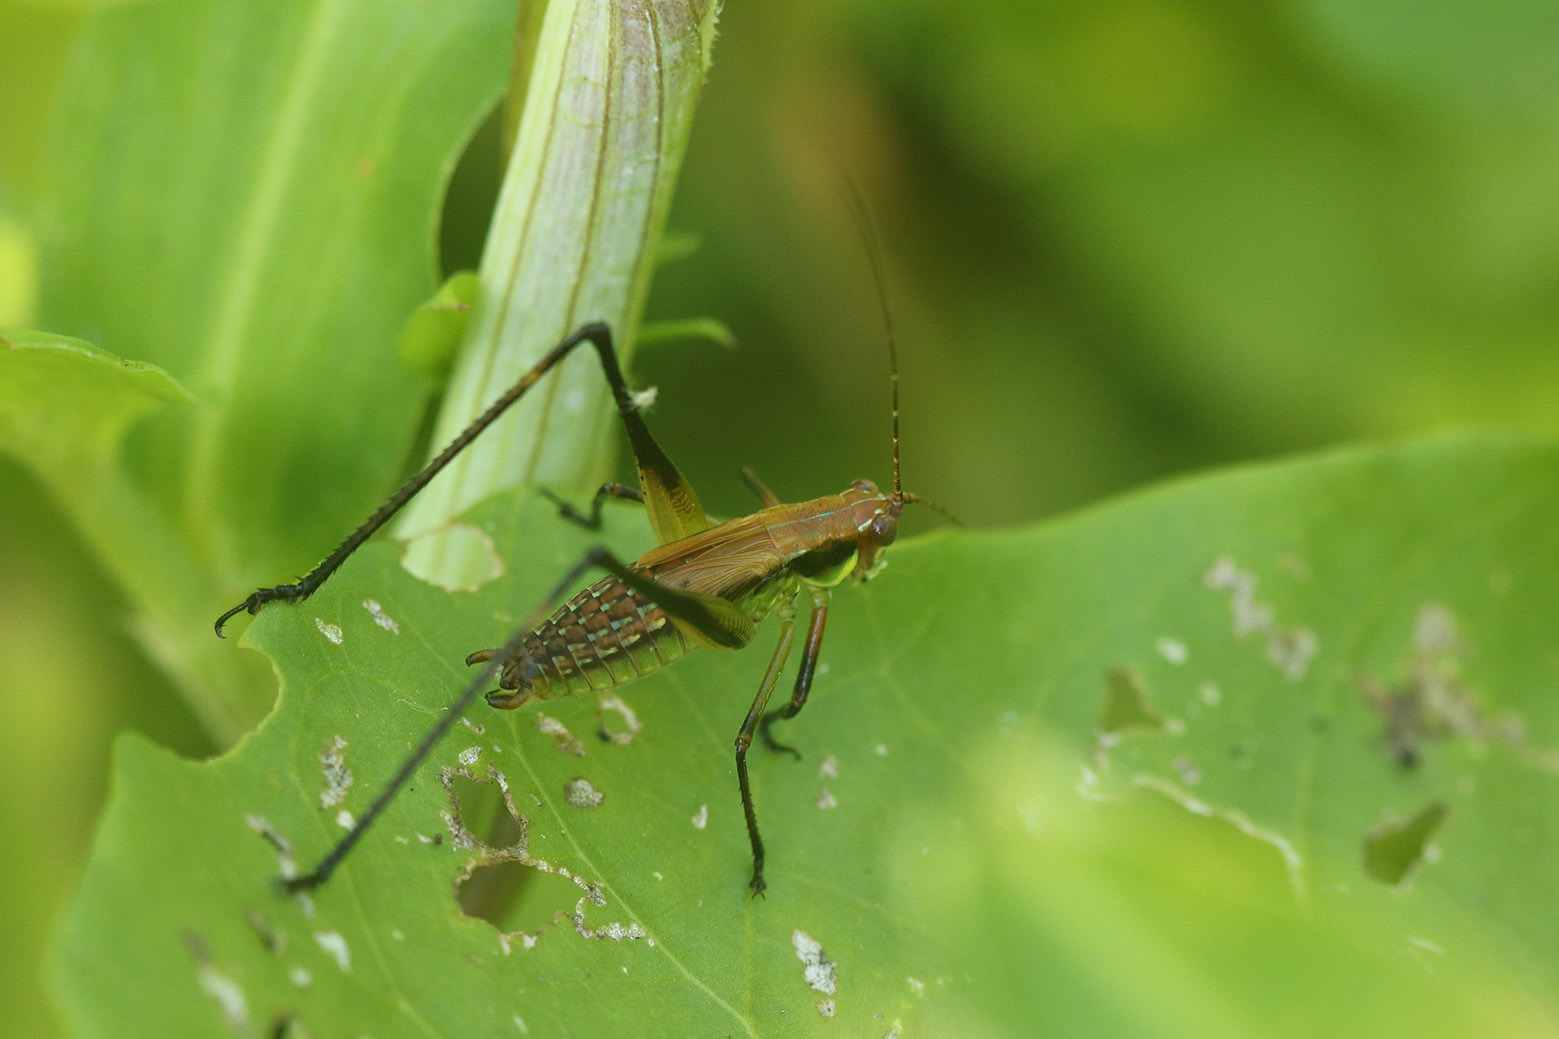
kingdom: Animalia
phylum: Arthropoda
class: Insecta
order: Orthoptera
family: Tettigoniidae
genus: Theudoria
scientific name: Theudoria melanocnemis
